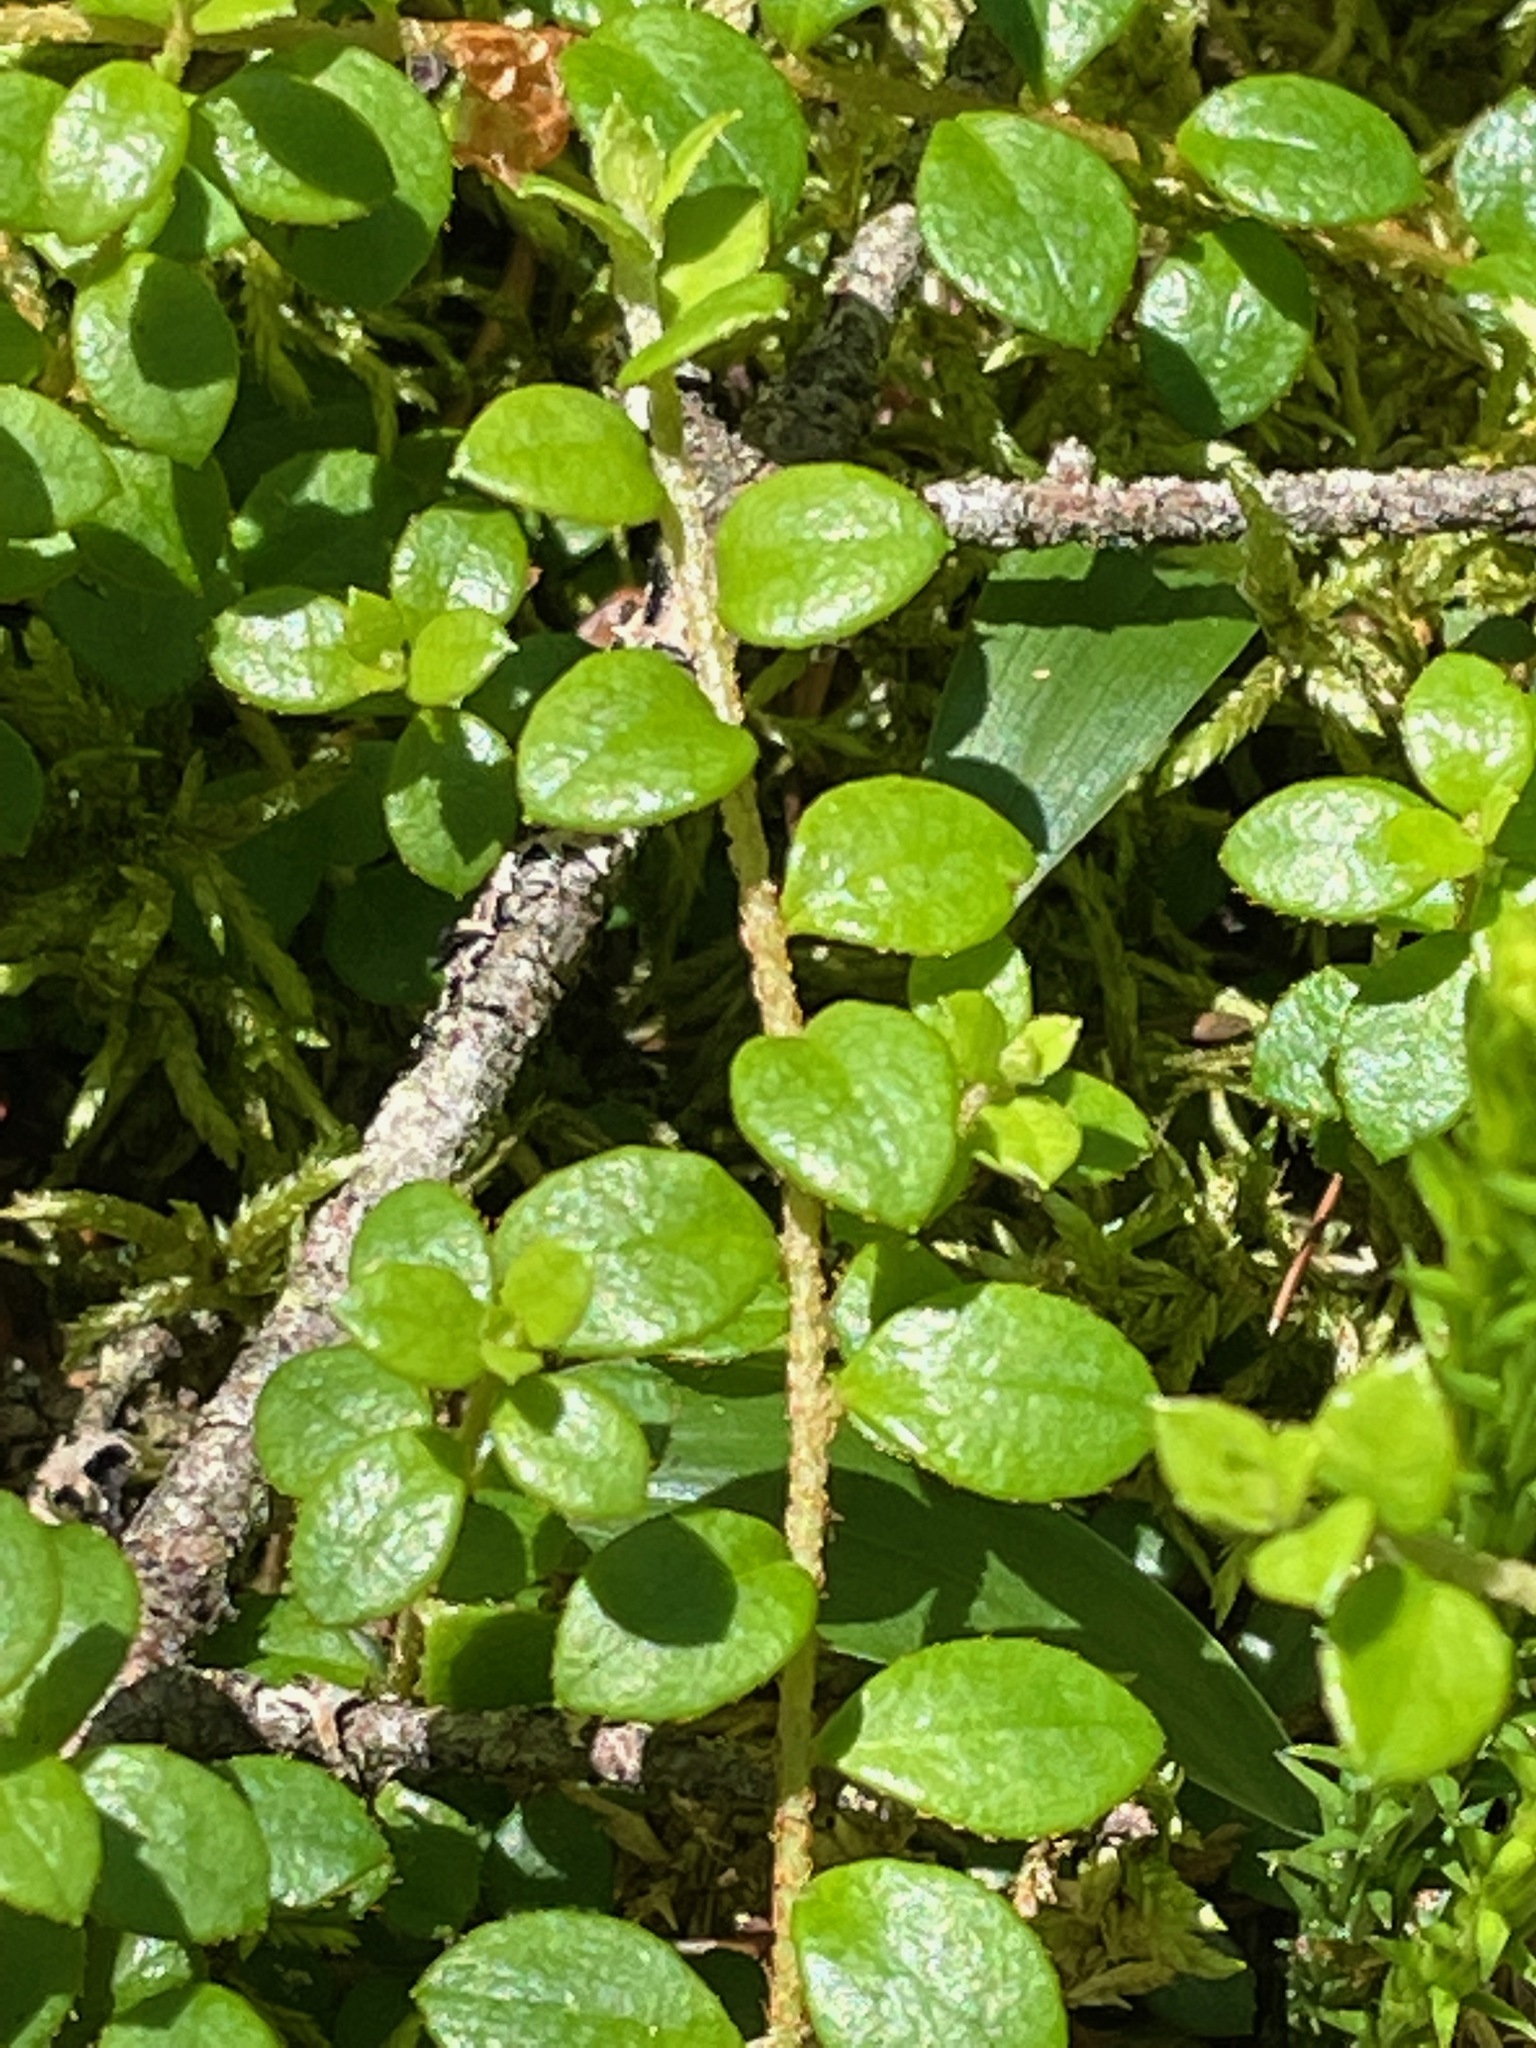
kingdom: Plantae
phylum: Tracheophyta
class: Magnoliopsida
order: Ericales
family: Ericaceae
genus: Gaultheria
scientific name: Gaultheria hispidula
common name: Cancer wintergreen
